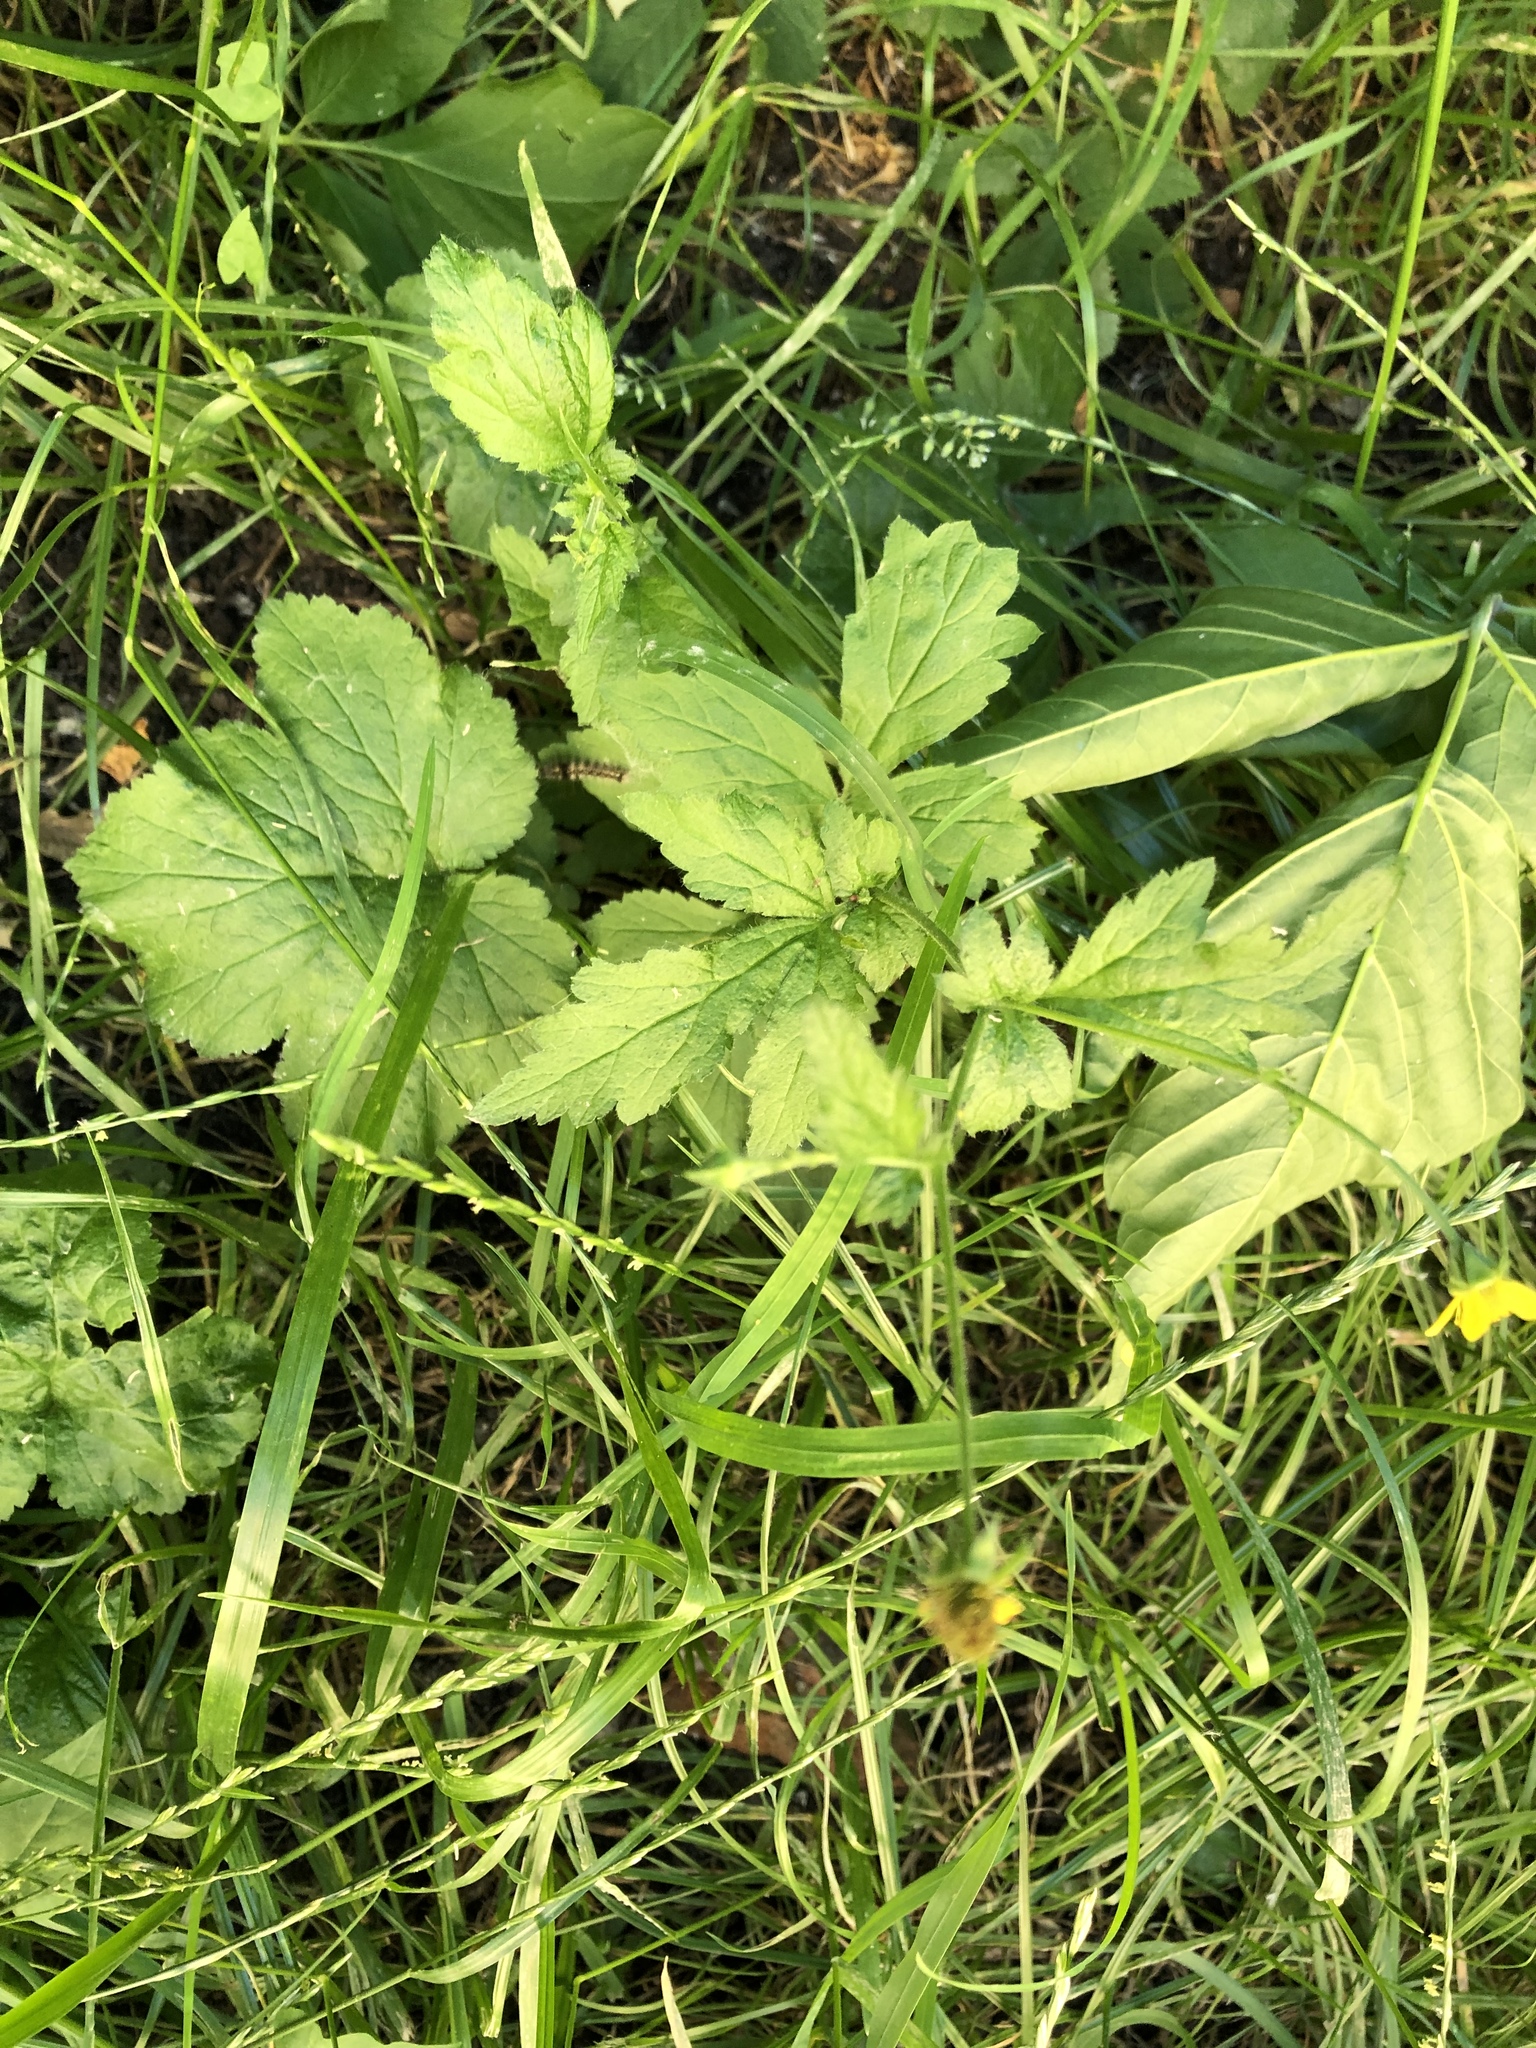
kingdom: Plantae
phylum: Tracheophyta
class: Magnoliopsida
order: Rosales
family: Rosaceae
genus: Geum
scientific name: Geum urbanum
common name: Wood avens
